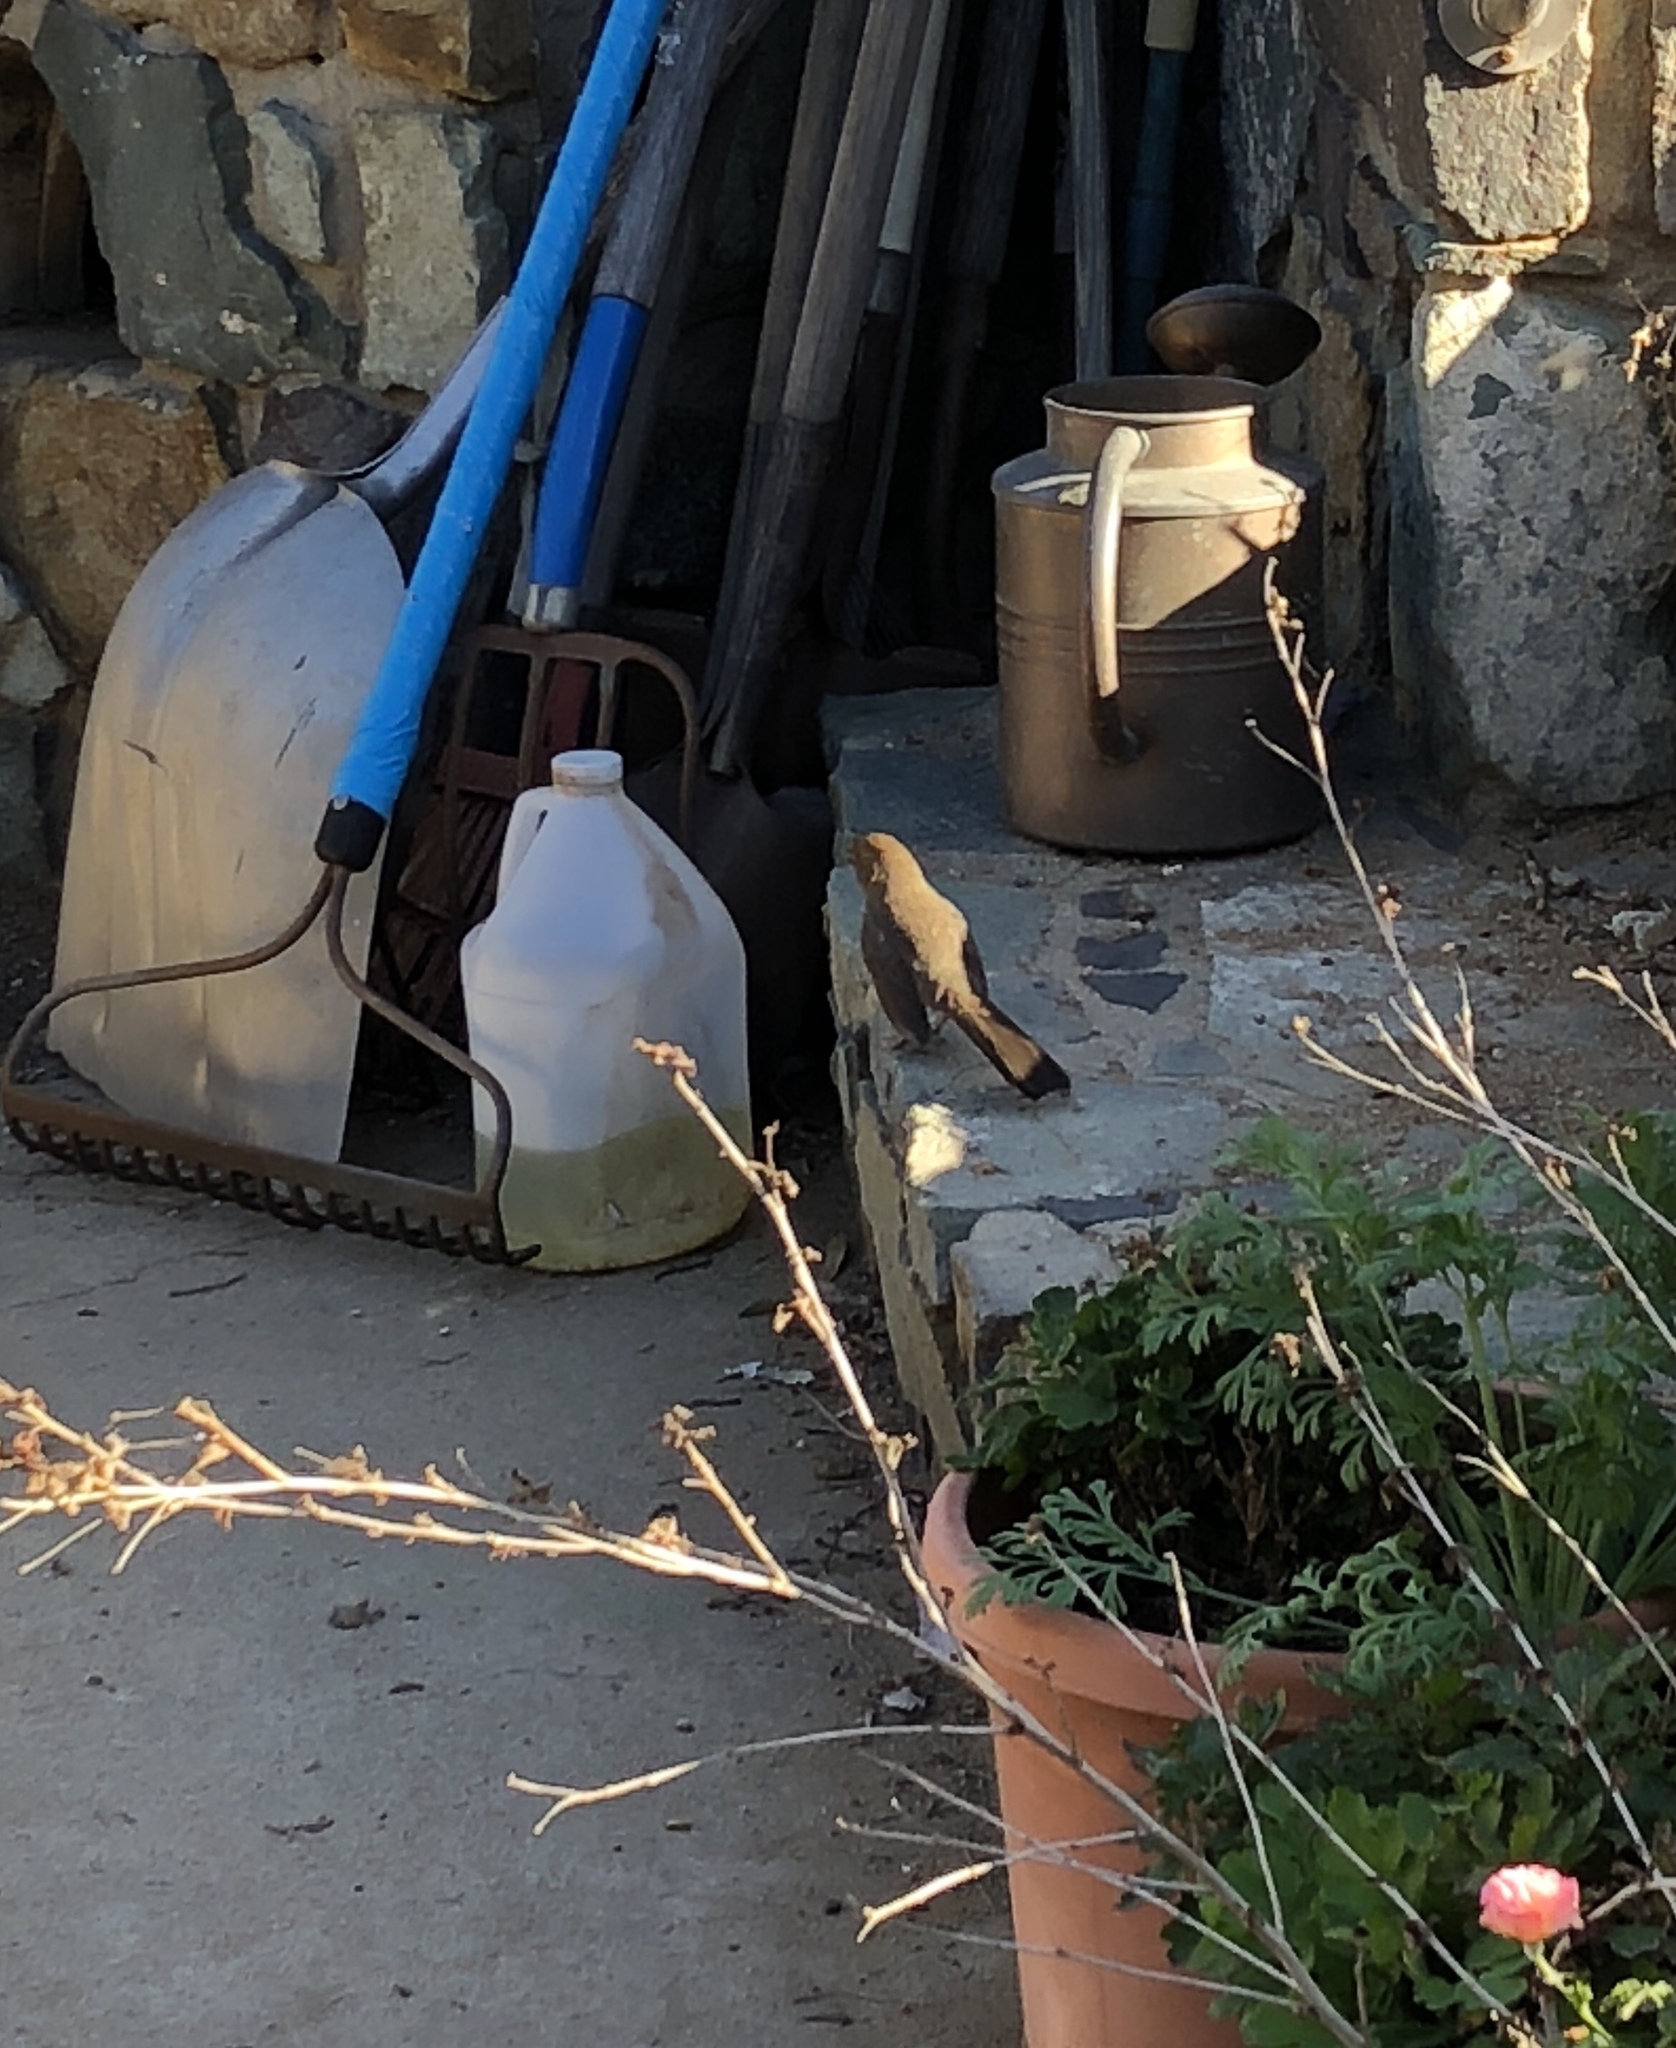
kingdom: Animalia
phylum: Chordata
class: Aves
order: Passeriformes
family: Passerellidae
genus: Melozone
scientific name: Melozone crissalis
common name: California towhee
